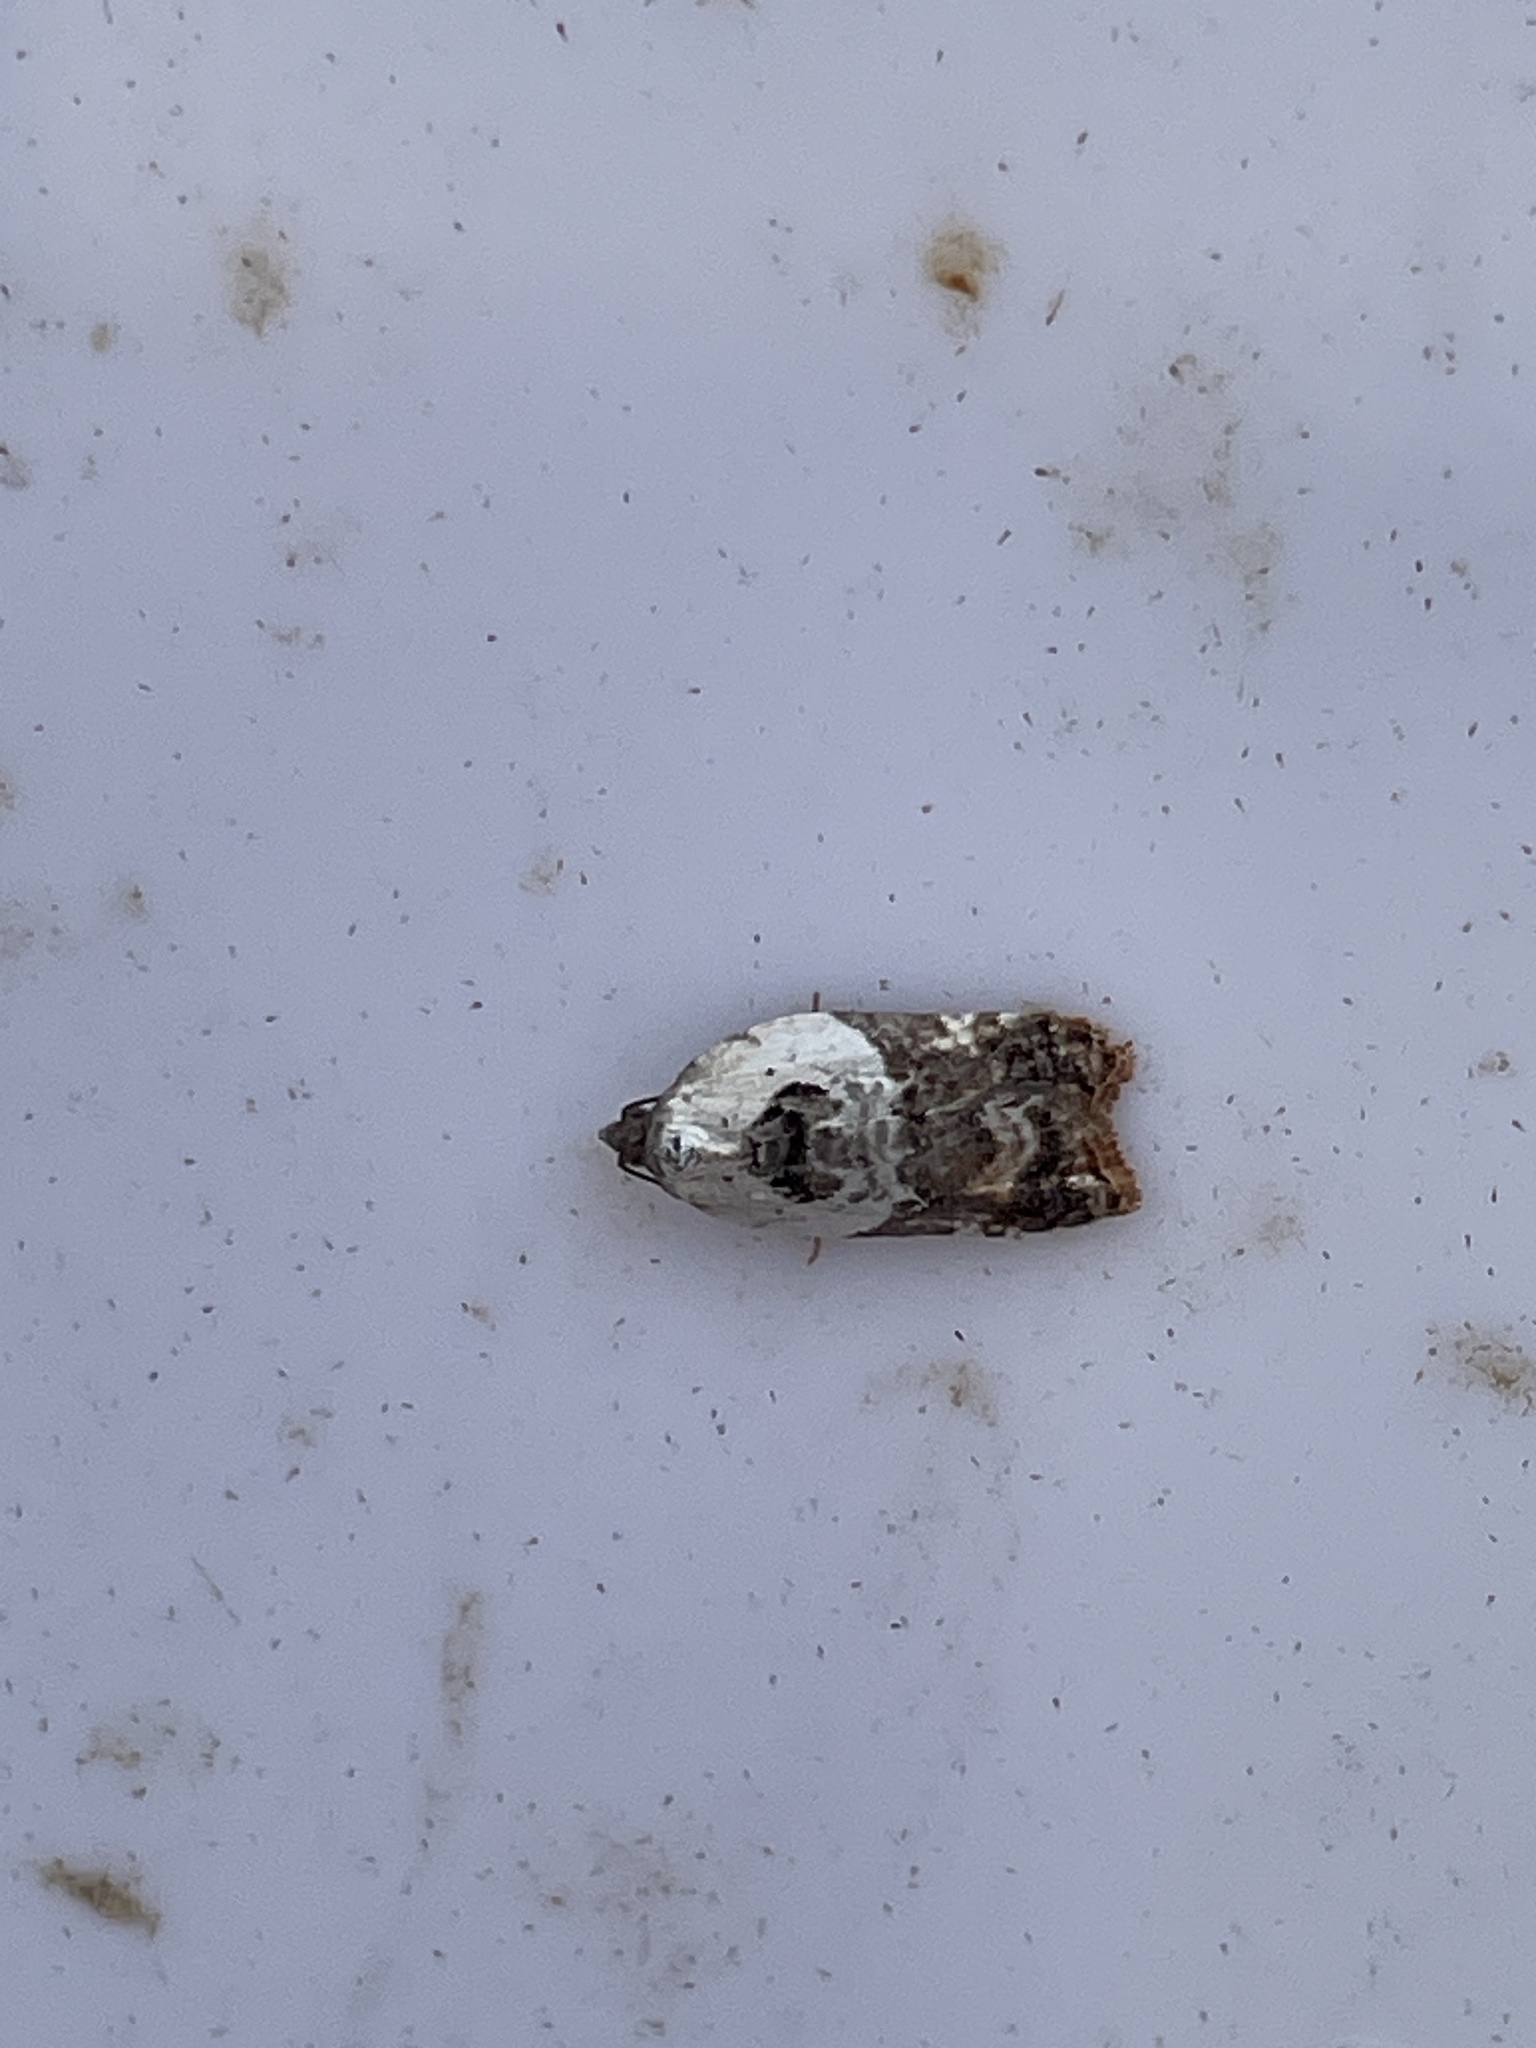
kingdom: Animalia
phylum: Arthropoda
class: Insecta
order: Lepidoptera
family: Tortricidae
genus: Acleris
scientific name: Acleris variegana
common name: Garden rose tortrix
